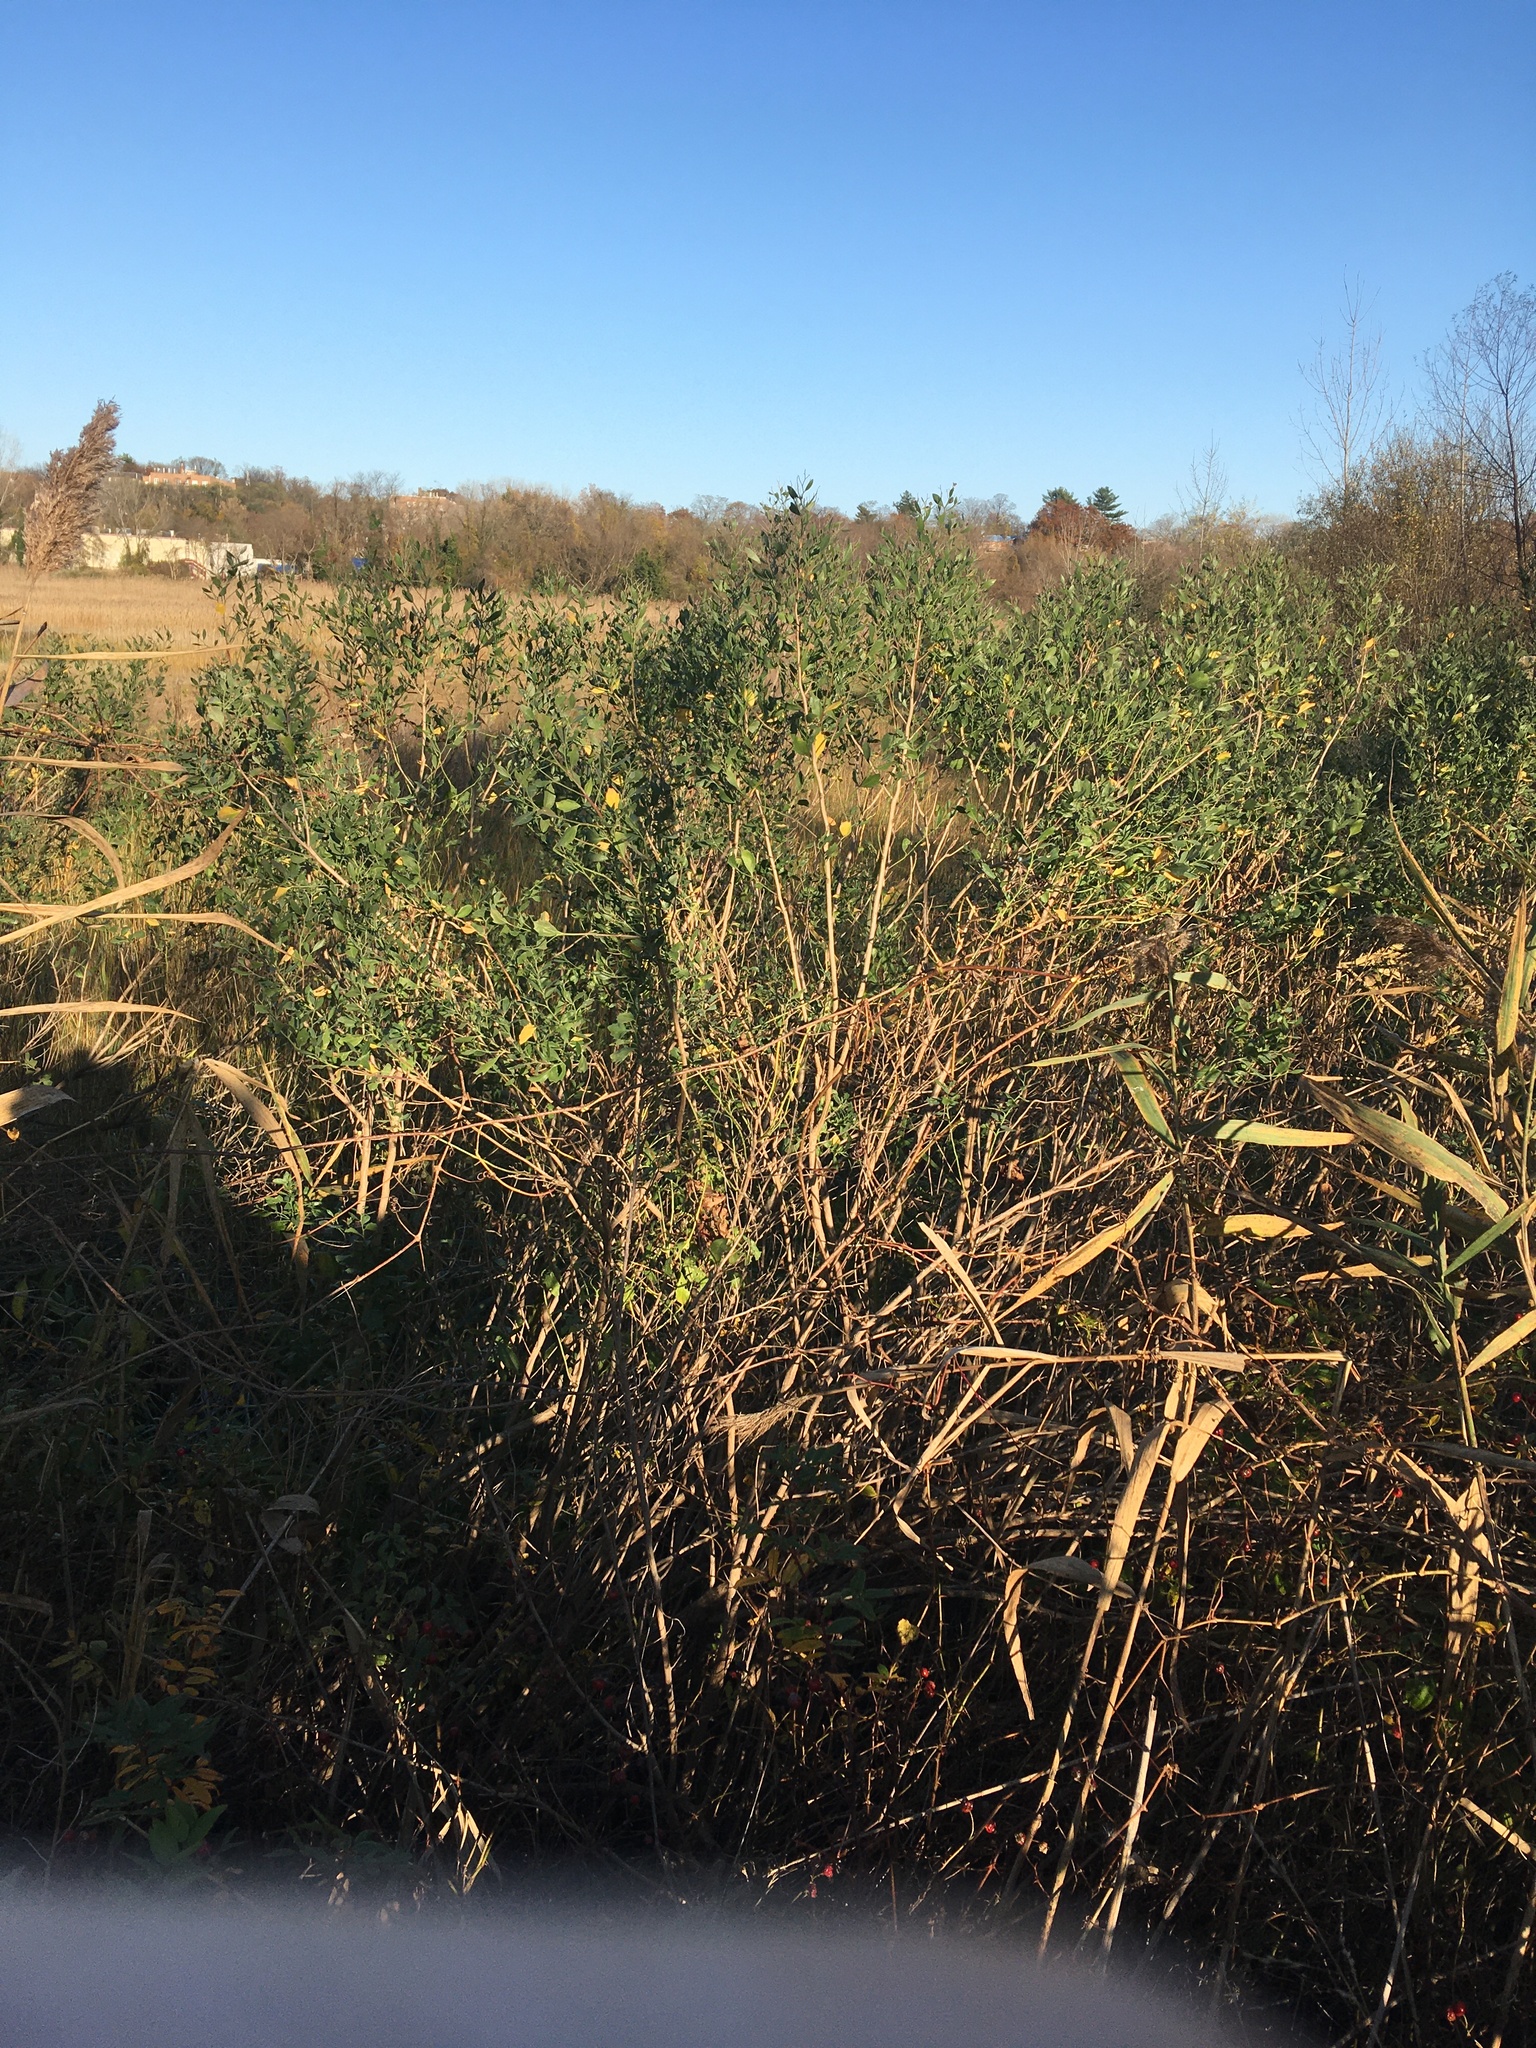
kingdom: Plantae
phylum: Tracheophyta
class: Magnoliopsida
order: Asterales
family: Asteraceae
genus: Baccharis
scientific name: Baccharis halimifolia
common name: Eastern baccharis
